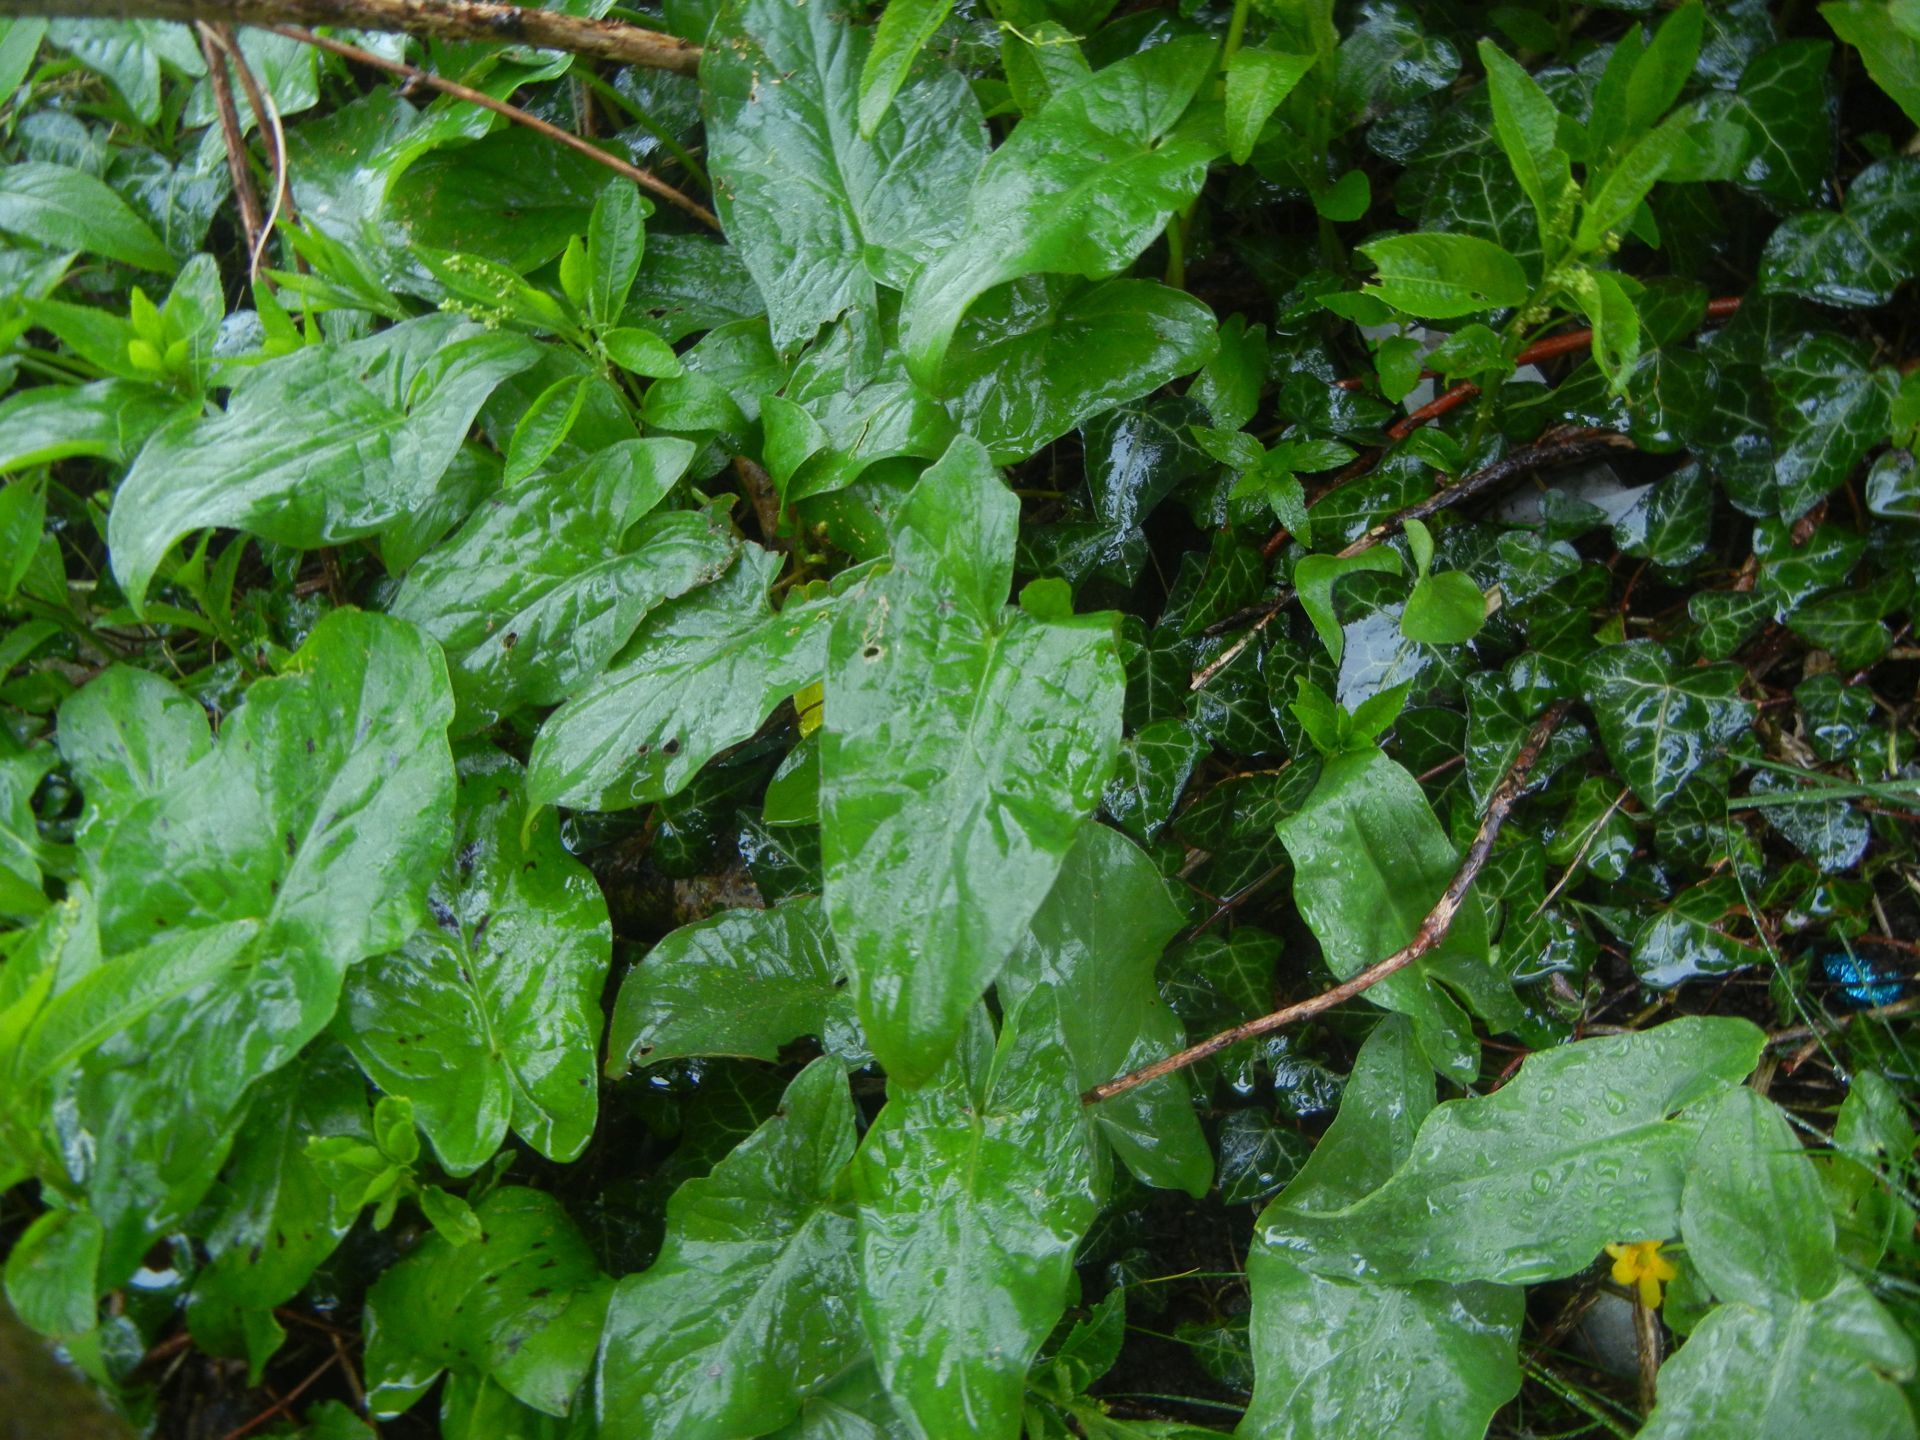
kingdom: Plantae
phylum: Tracheophyta
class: Liliopsida
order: Alismatales
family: Araceae
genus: Arum
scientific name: Arum maculatum
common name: Lords-and-ladies
